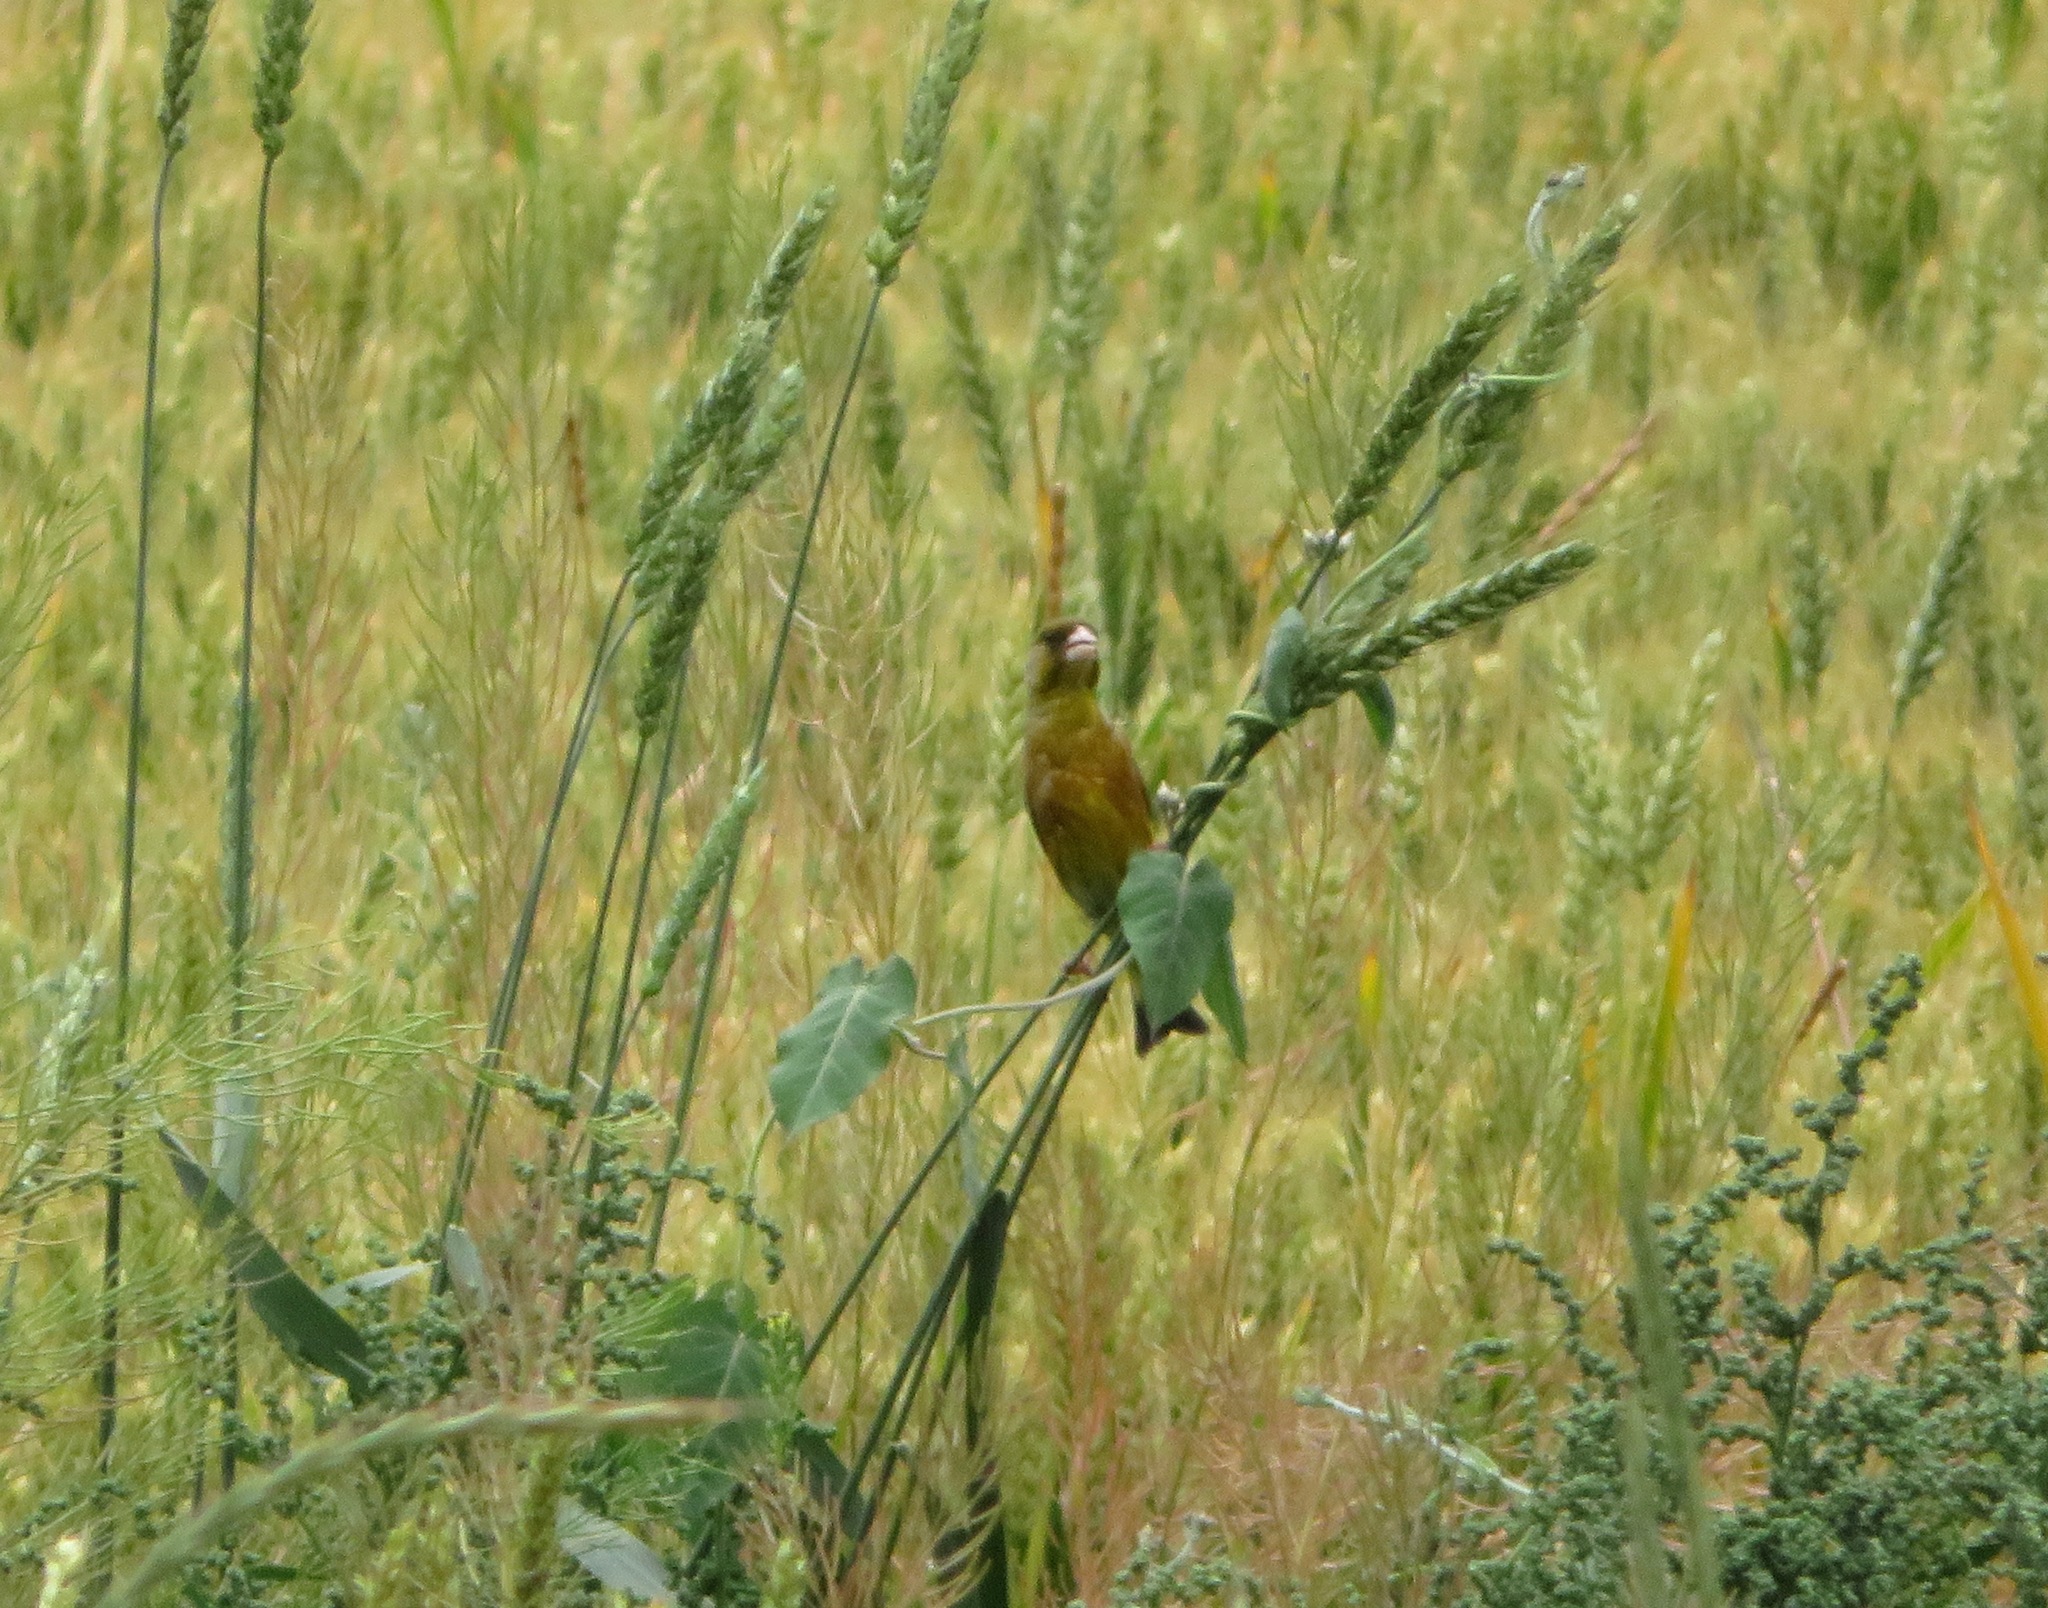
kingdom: Plantae
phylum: Tracheophyta
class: Liliopsida
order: Poales
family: Poaceae
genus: Chloris
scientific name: Chloris sinica
